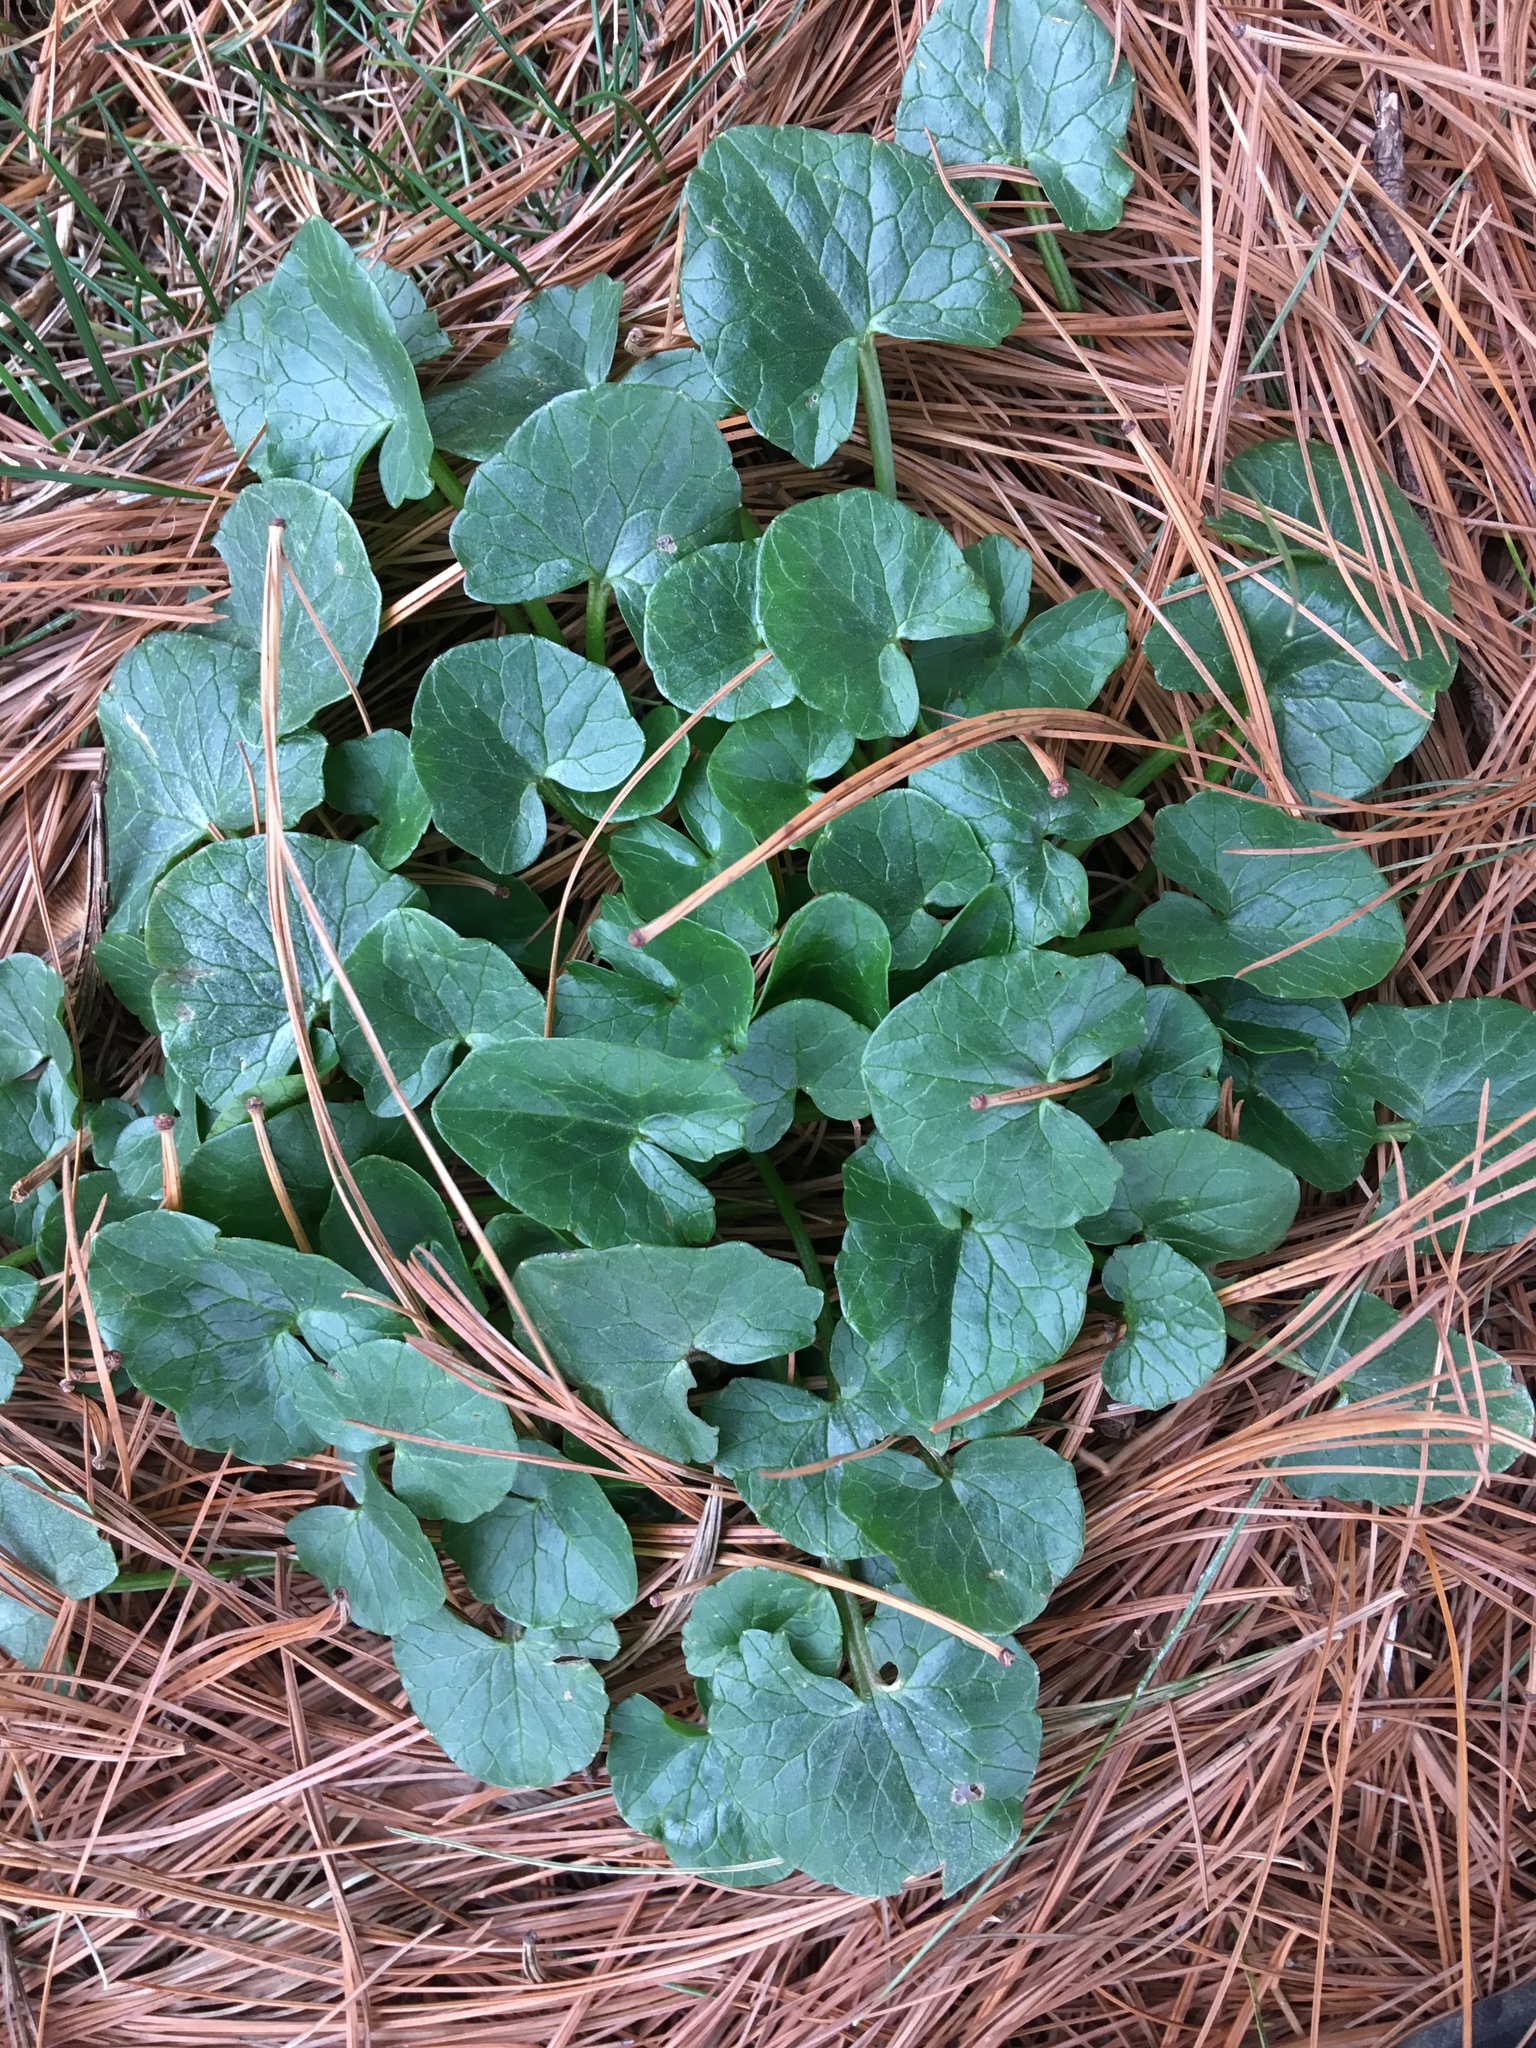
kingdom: Plantae
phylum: Tracheophyta
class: Magnoliopsida
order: Ranunculales
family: Ranunculaceae
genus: Ficaria
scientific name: Ficaria verna
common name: Lesser celandine
